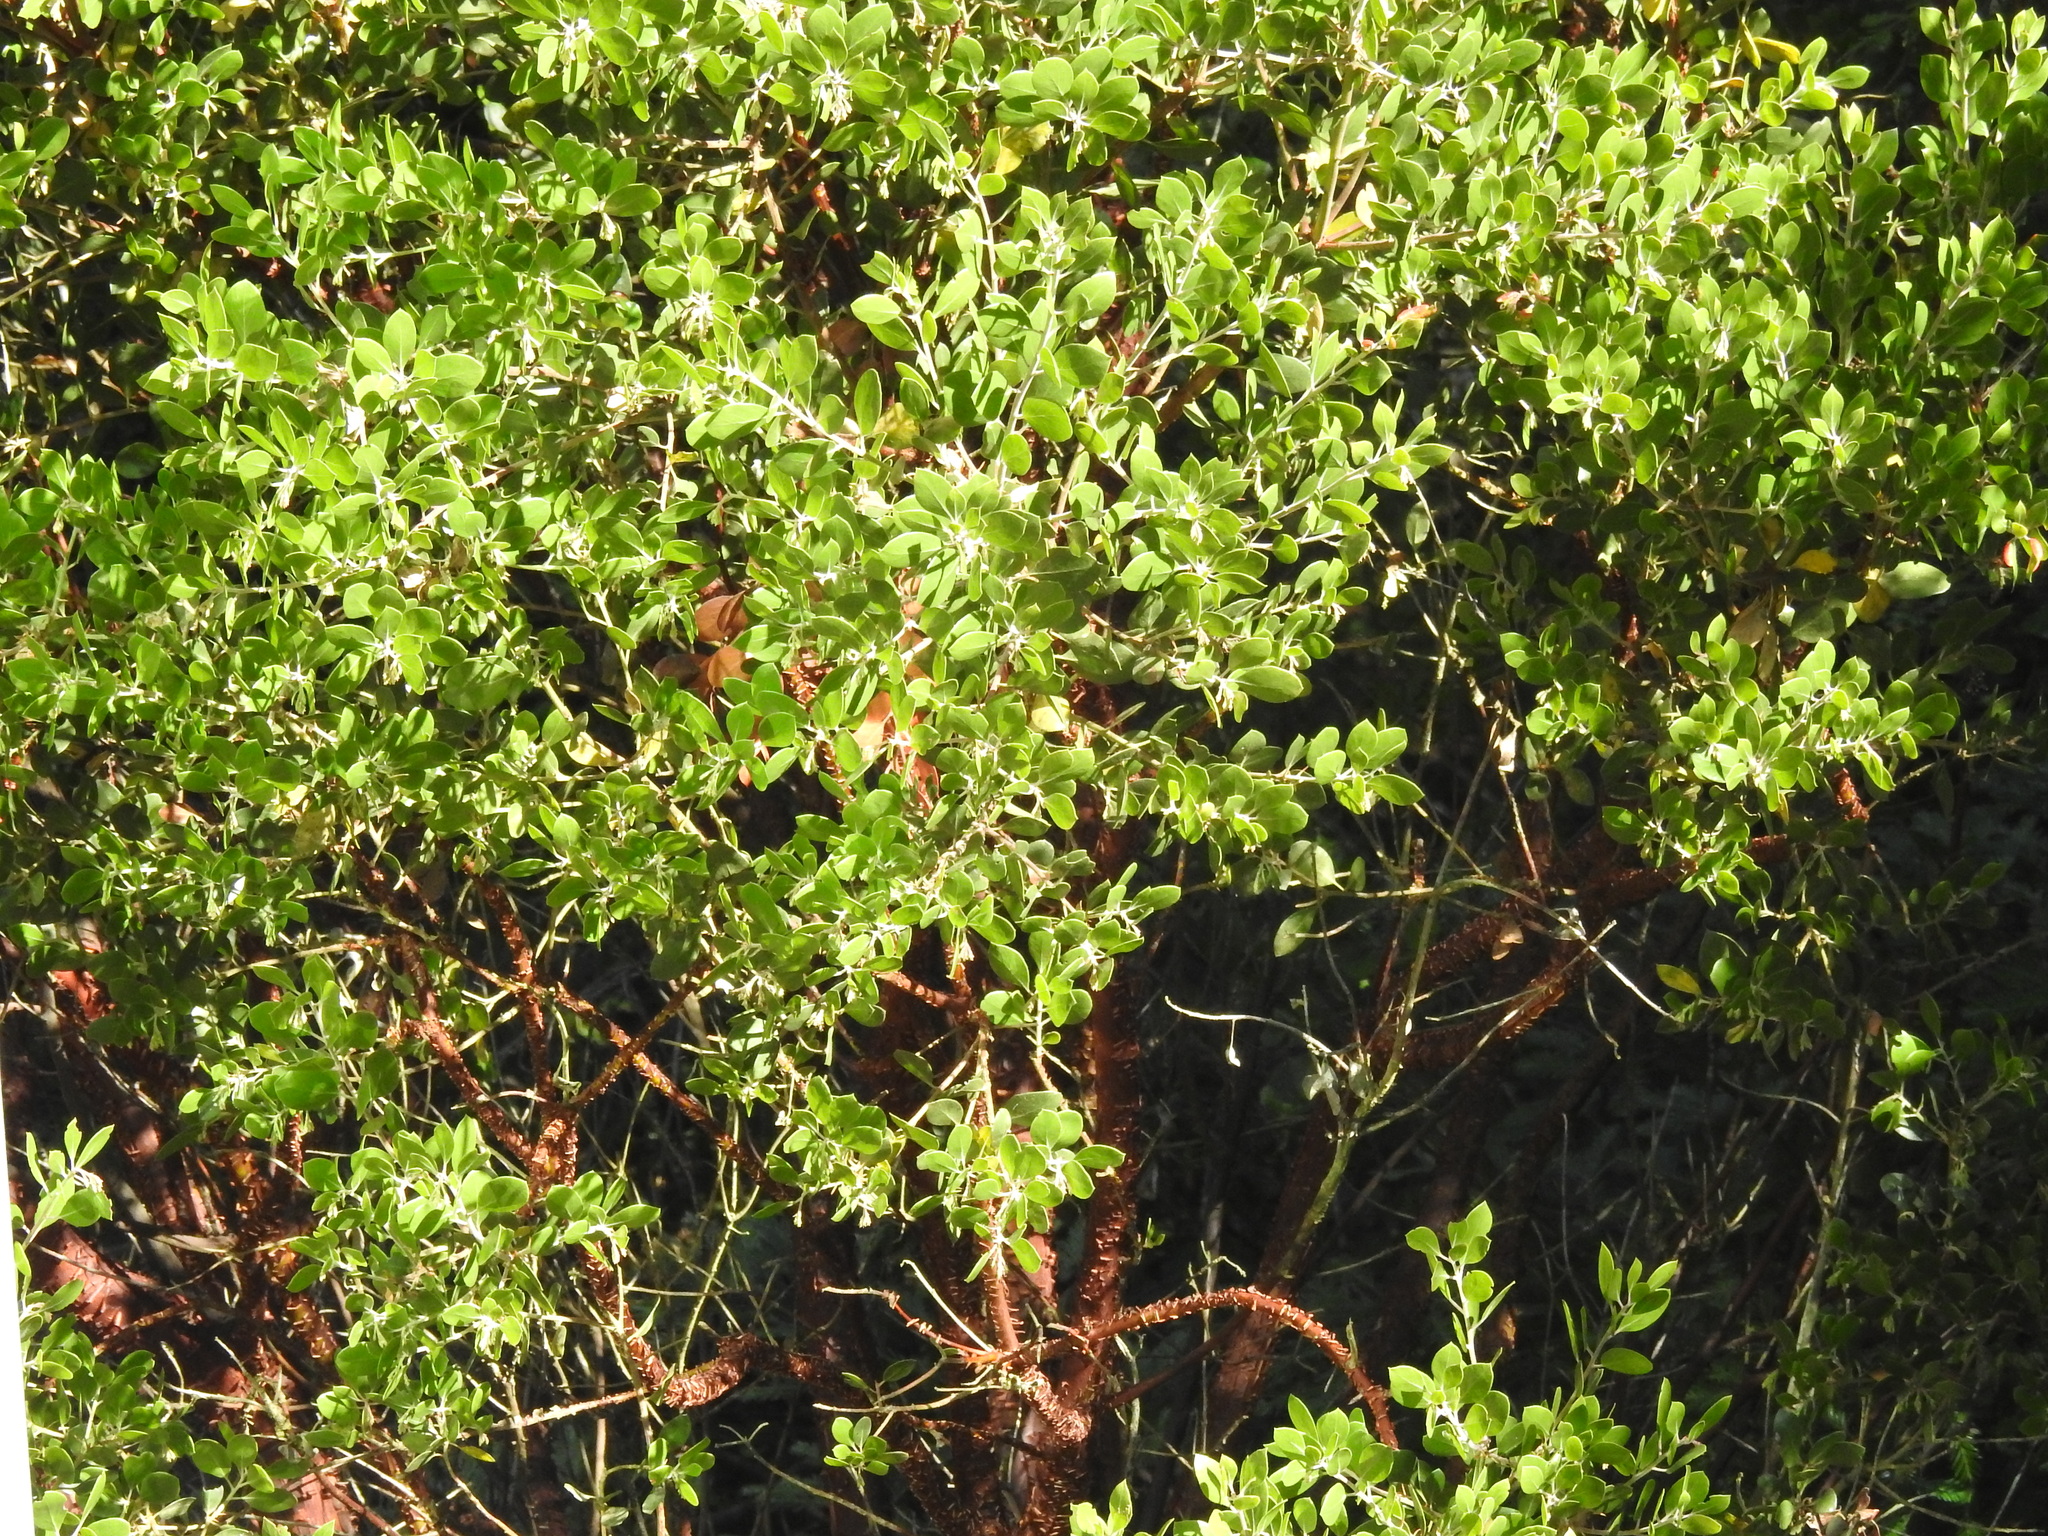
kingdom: Plantae
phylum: Tracheophyta
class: Magnoliopsida
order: Ericales
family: Ericaceae
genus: Arctostaphylos
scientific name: Arctostaphylos crustacea
